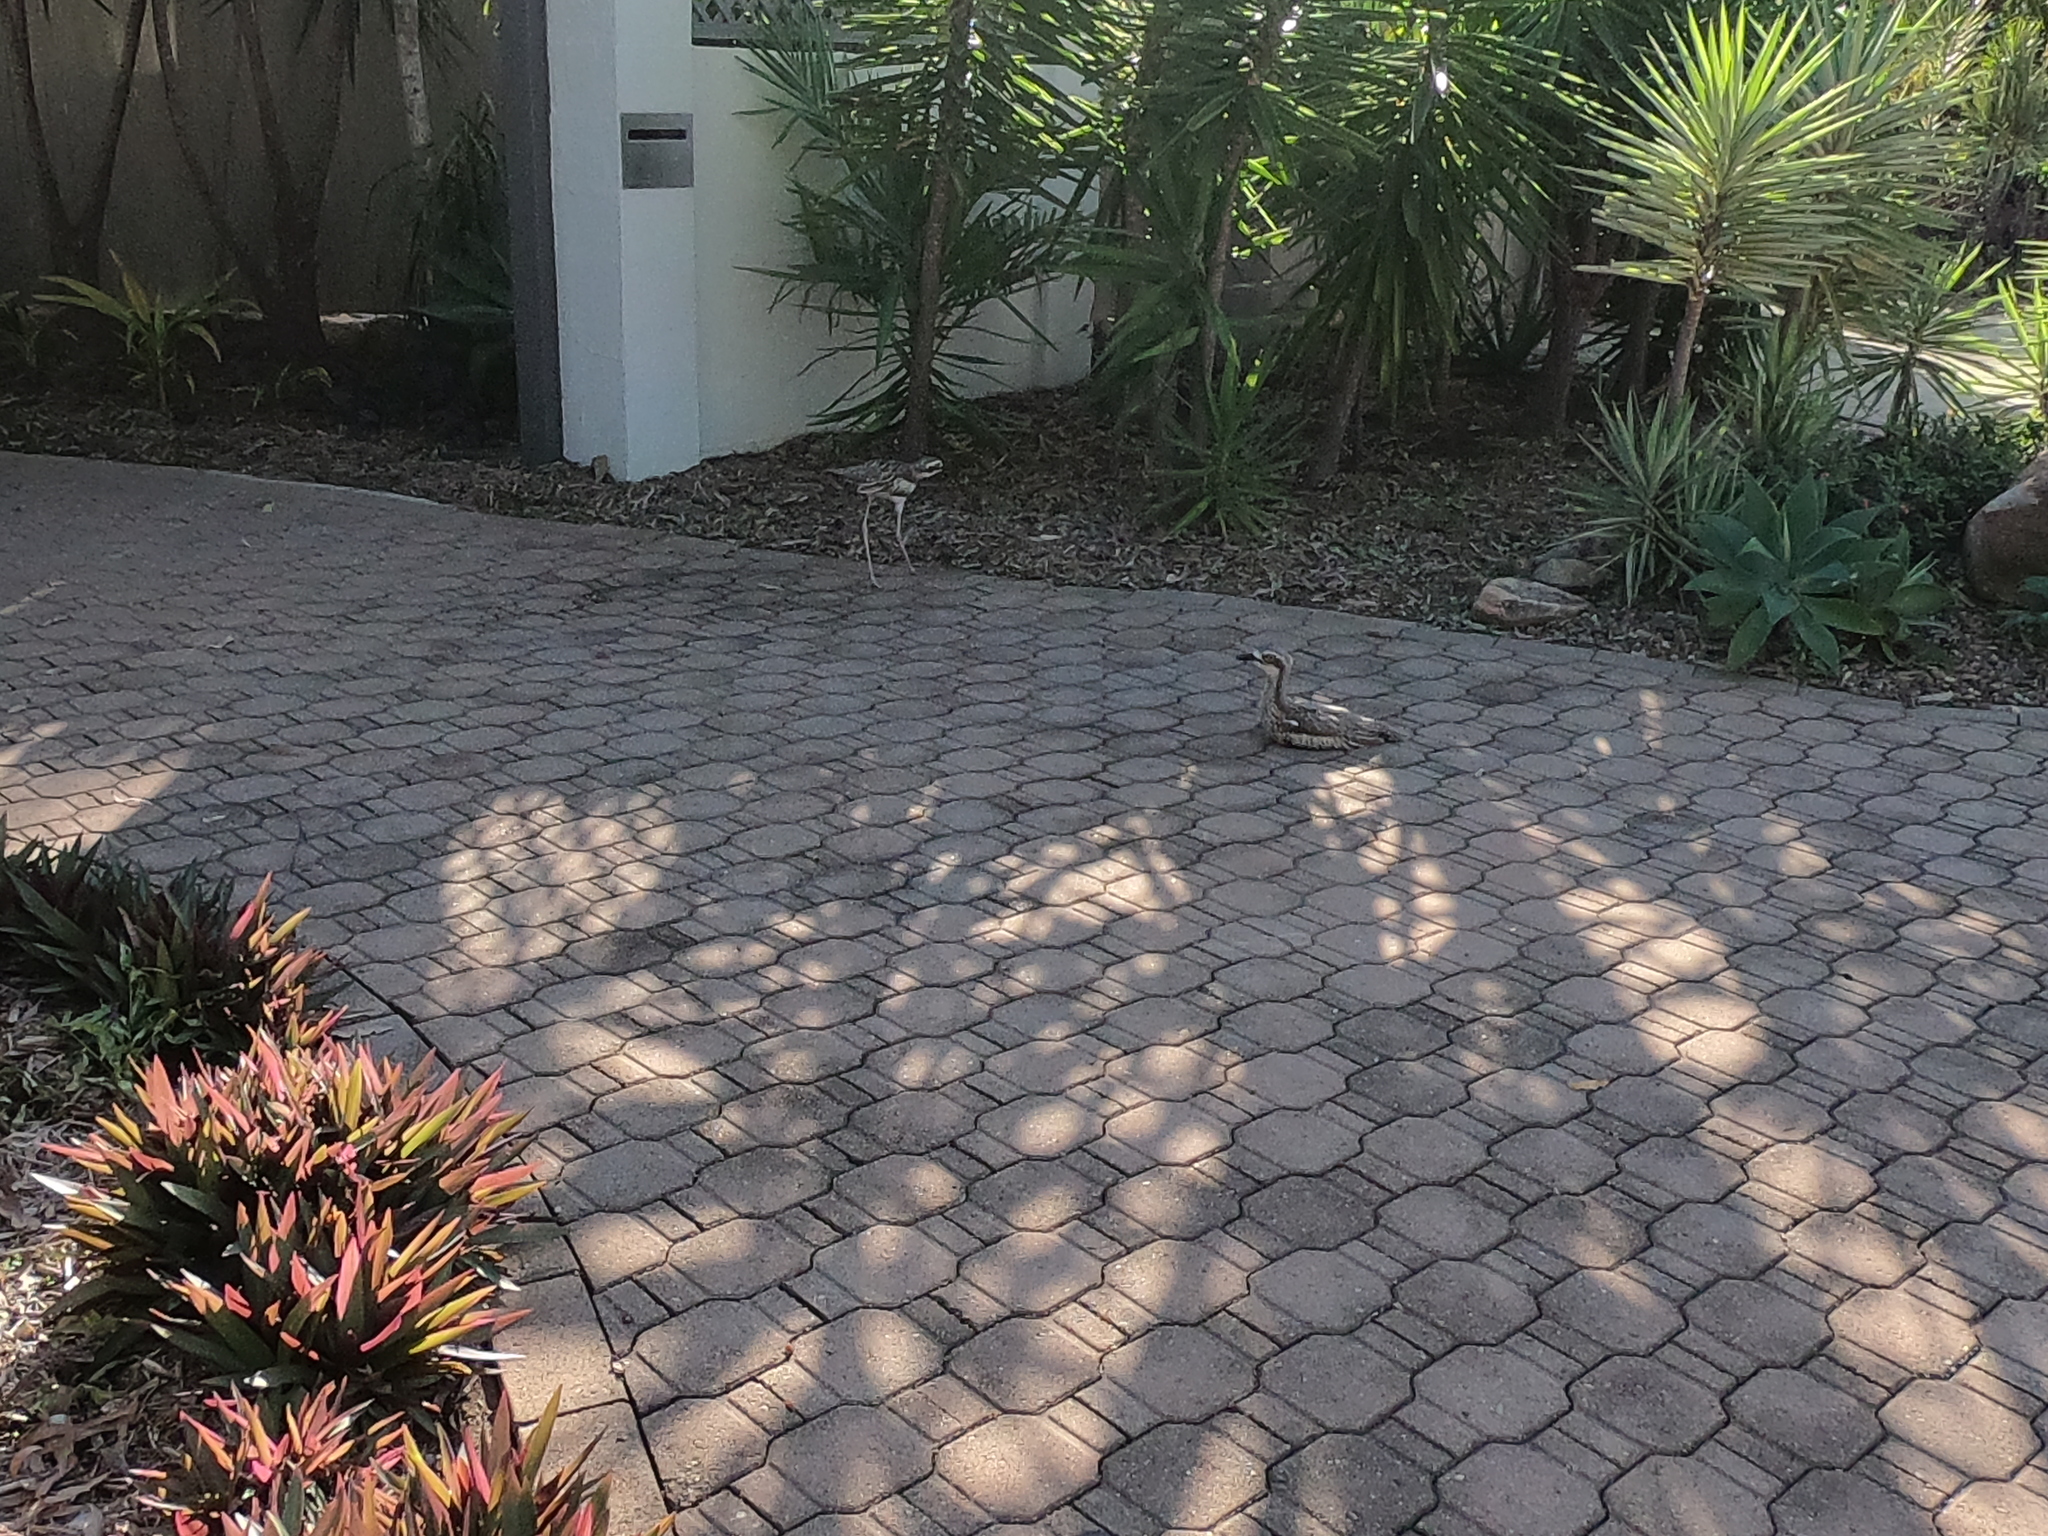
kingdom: Animalia
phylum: Chordata
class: Aves
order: Charadriiformes
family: Burhinidae
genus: Burhinus
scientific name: Burhinus grallarius
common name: Bush stone-curlew
